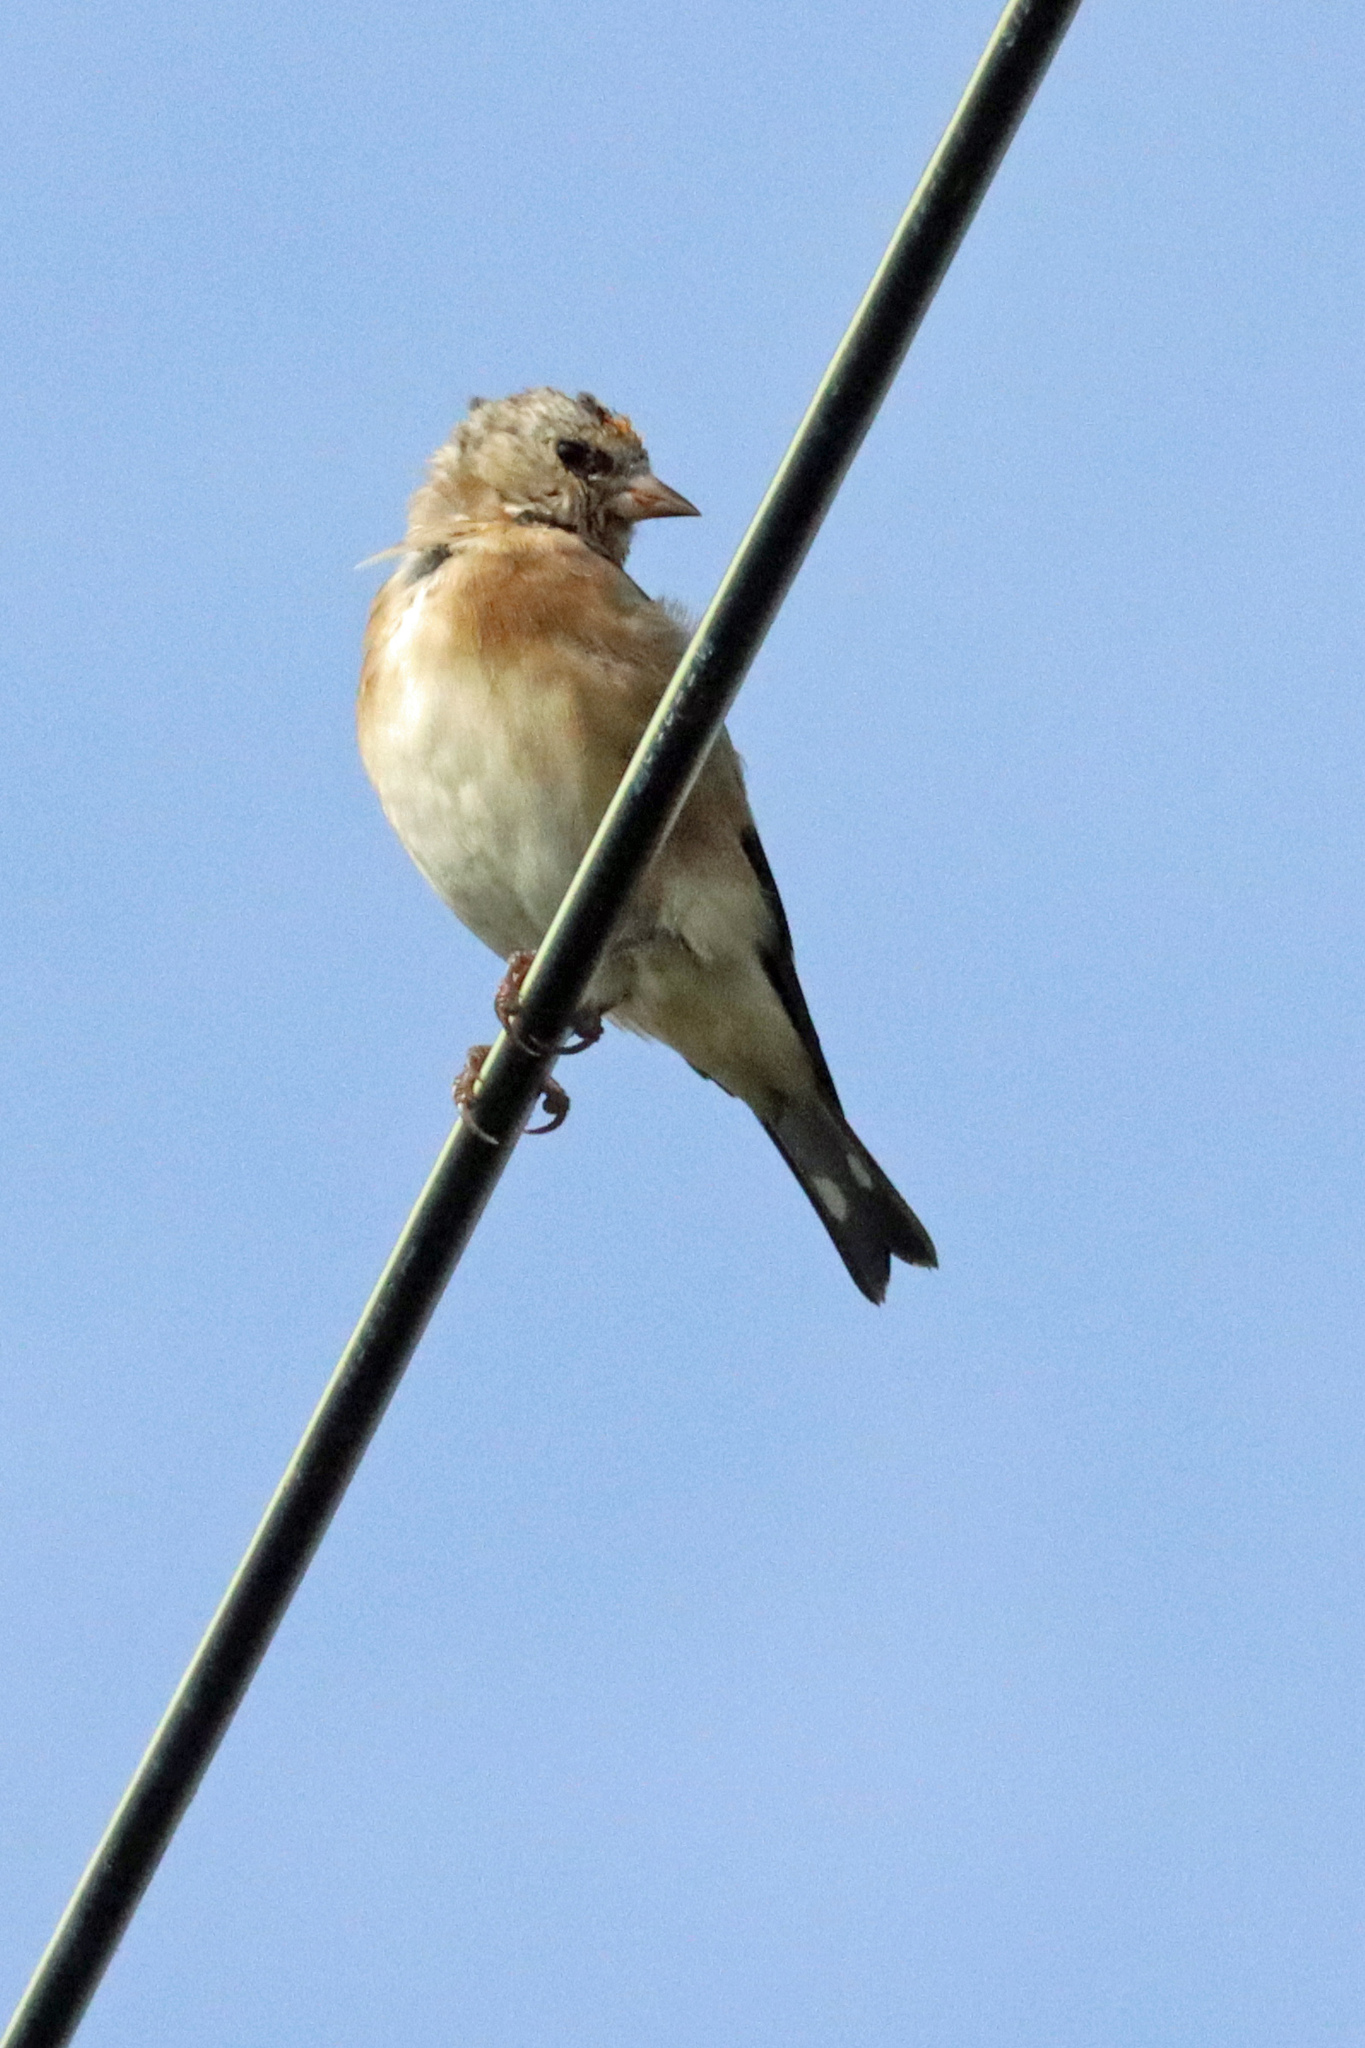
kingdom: Animalia
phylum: Chordata
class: Aves
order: Passeriformes
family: Fringillidae
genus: Carduelis
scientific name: Carduelis carduelis
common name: European goldfinch
